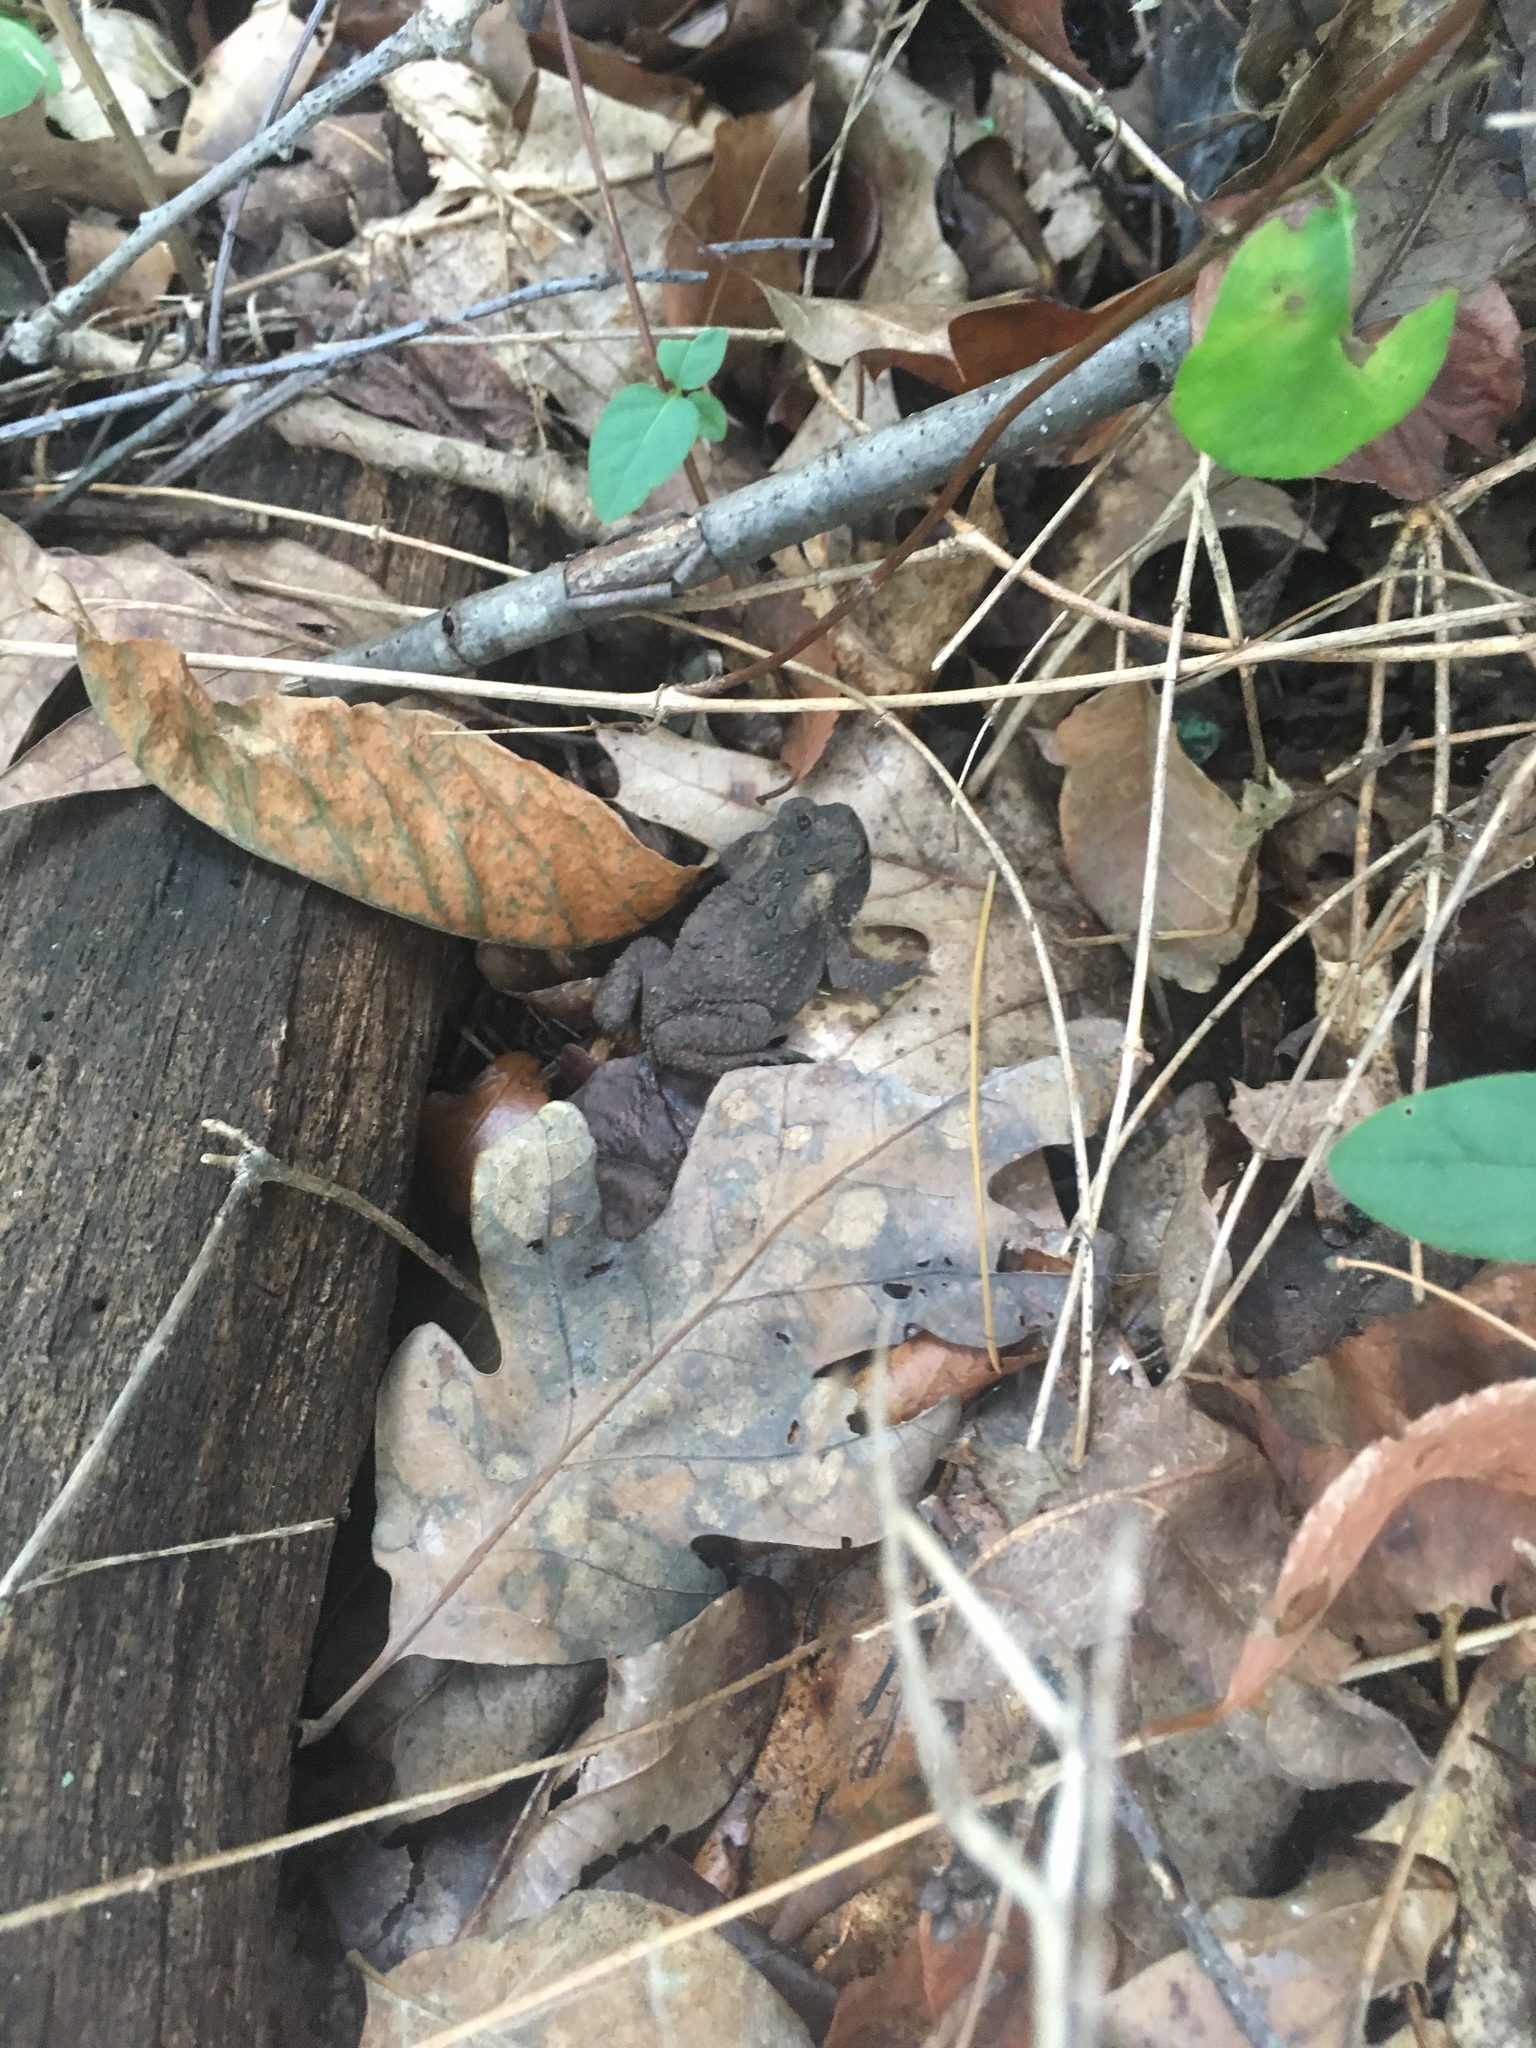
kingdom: Animalia
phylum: Chordata
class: Amphibia
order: Anura
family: Bufonidae
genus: Anaxyrus
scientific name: Anaxyrus americanus
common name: American toad
